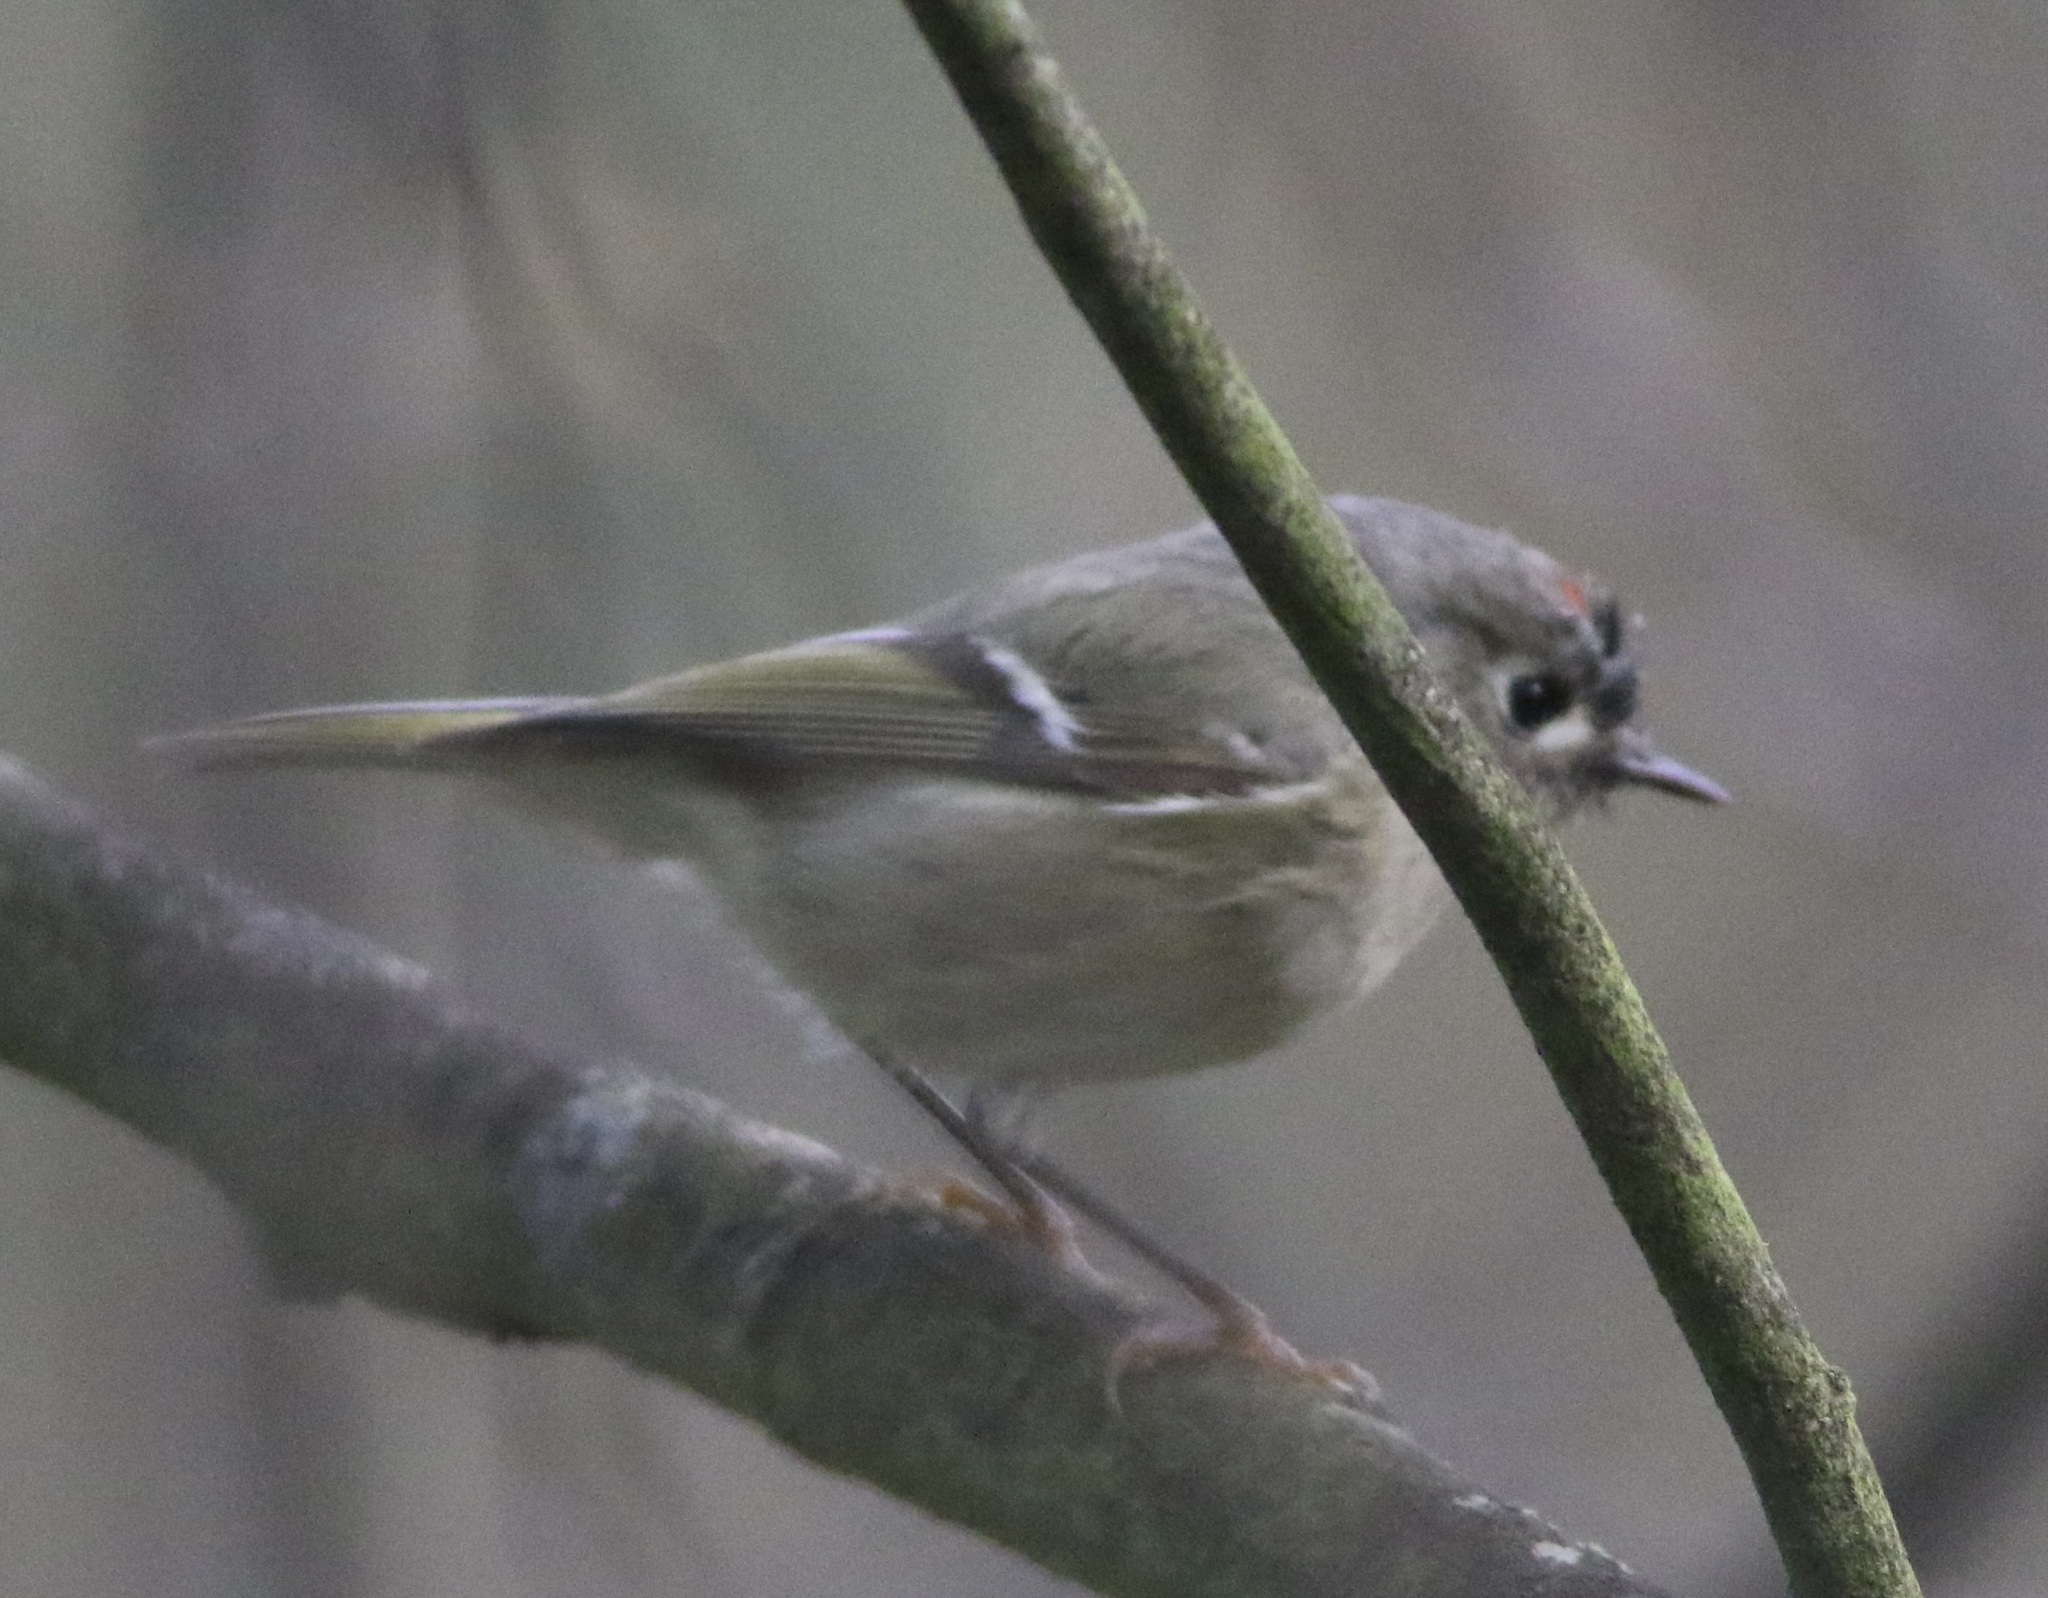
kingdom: Animalia
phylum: Chordata
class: Aves
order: Passeriformes
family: Regulidae
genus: Regulus
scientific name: Regulus calendula
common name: Ruby-crowned kinglet
